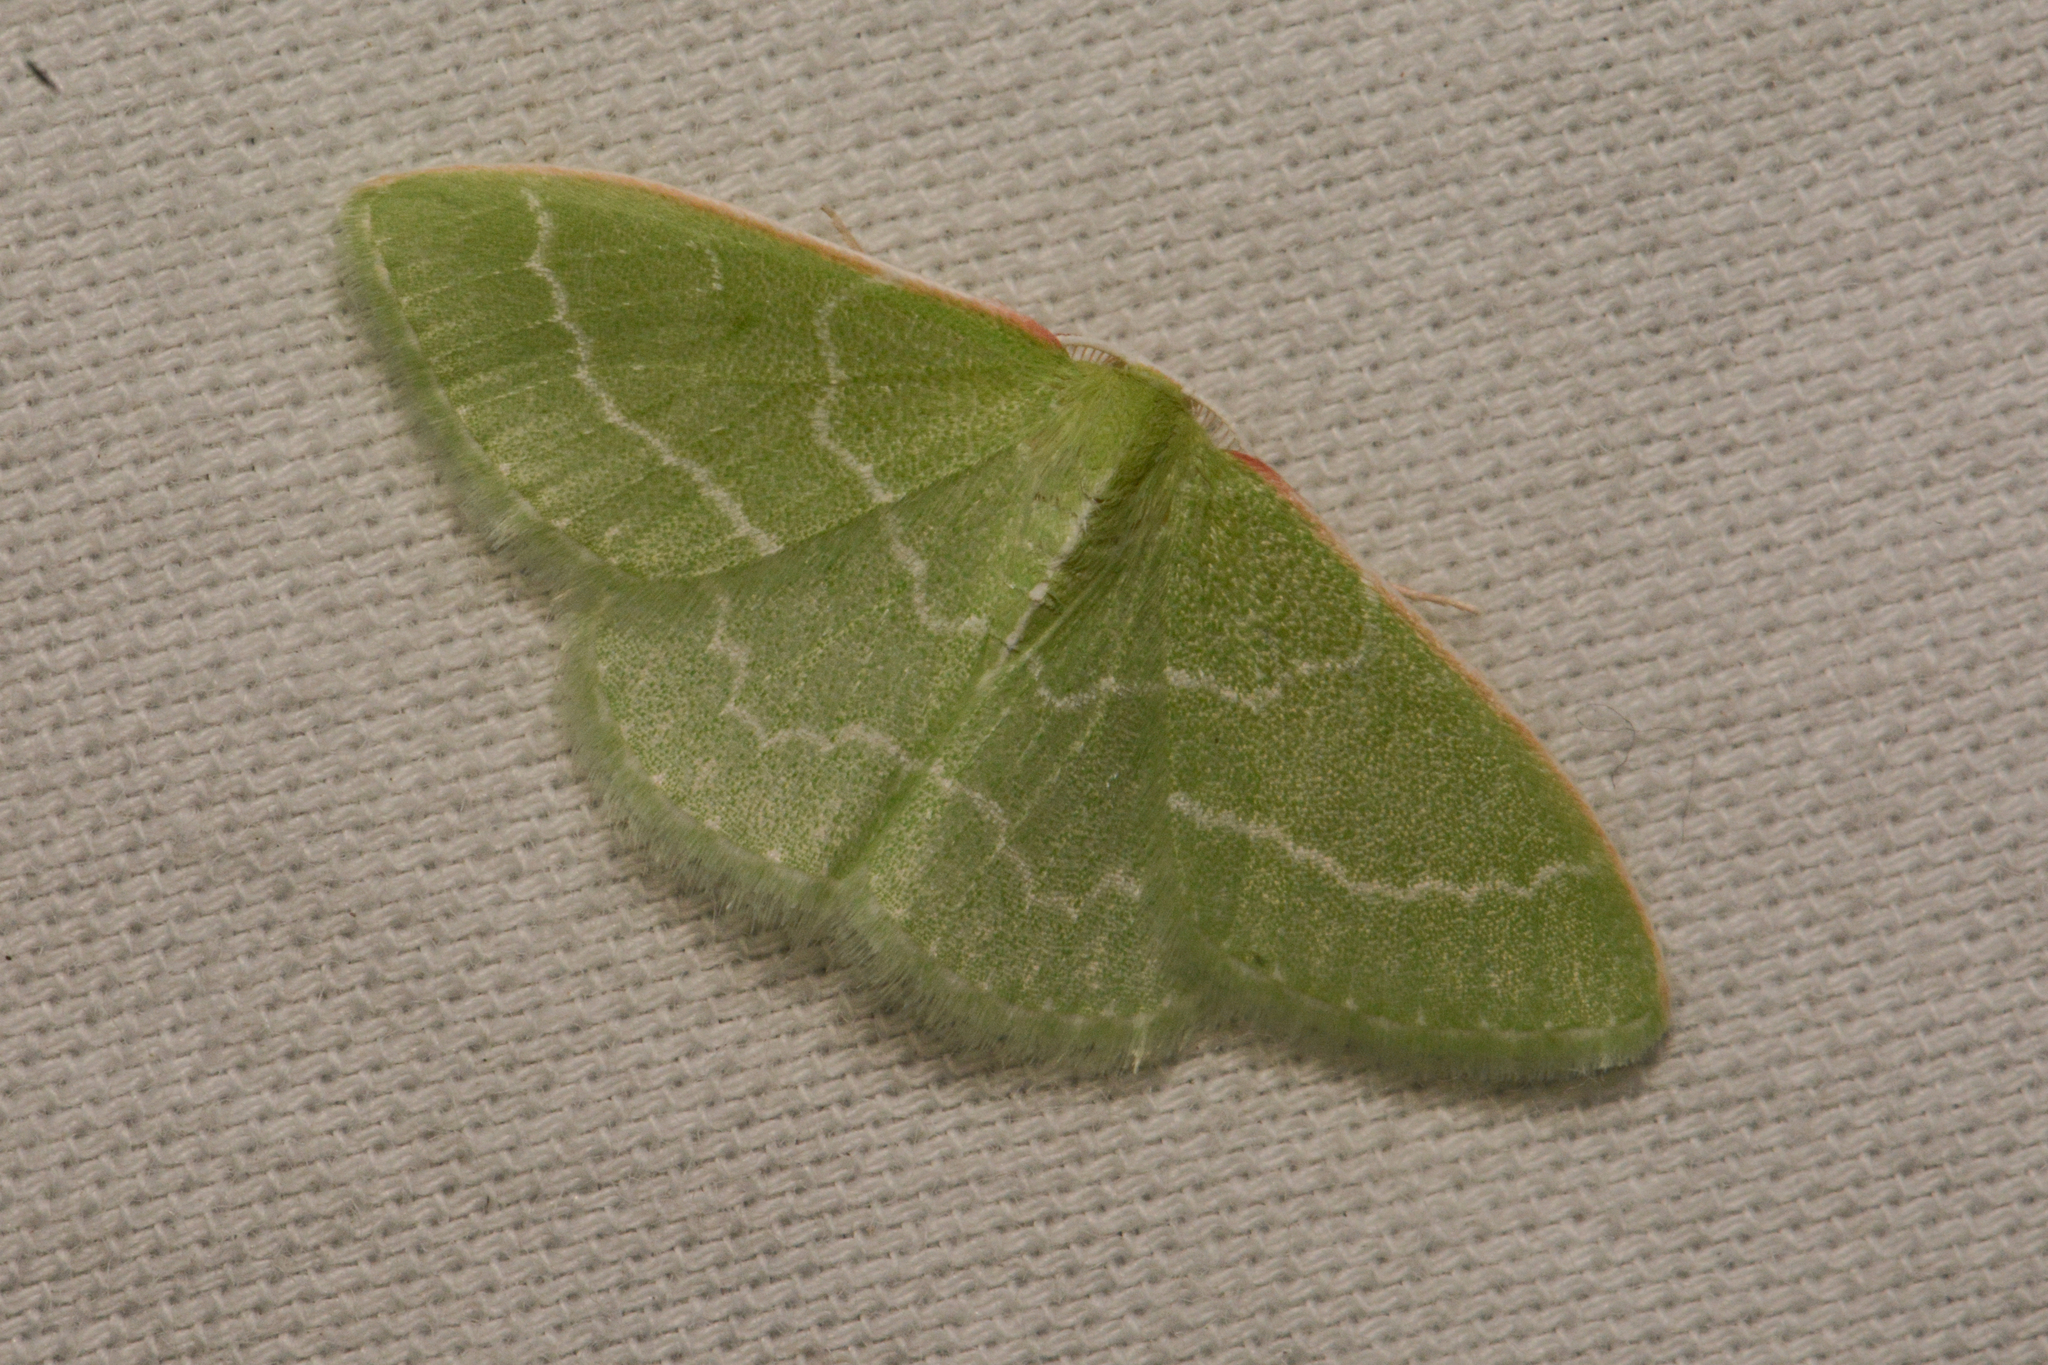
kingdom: Animalia
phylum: Arthropoda
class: Insecta
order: Lepidoptera
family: Geometridae
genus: Synchlora
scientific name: Synchlora aerata
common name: Wavy-lined emerald
